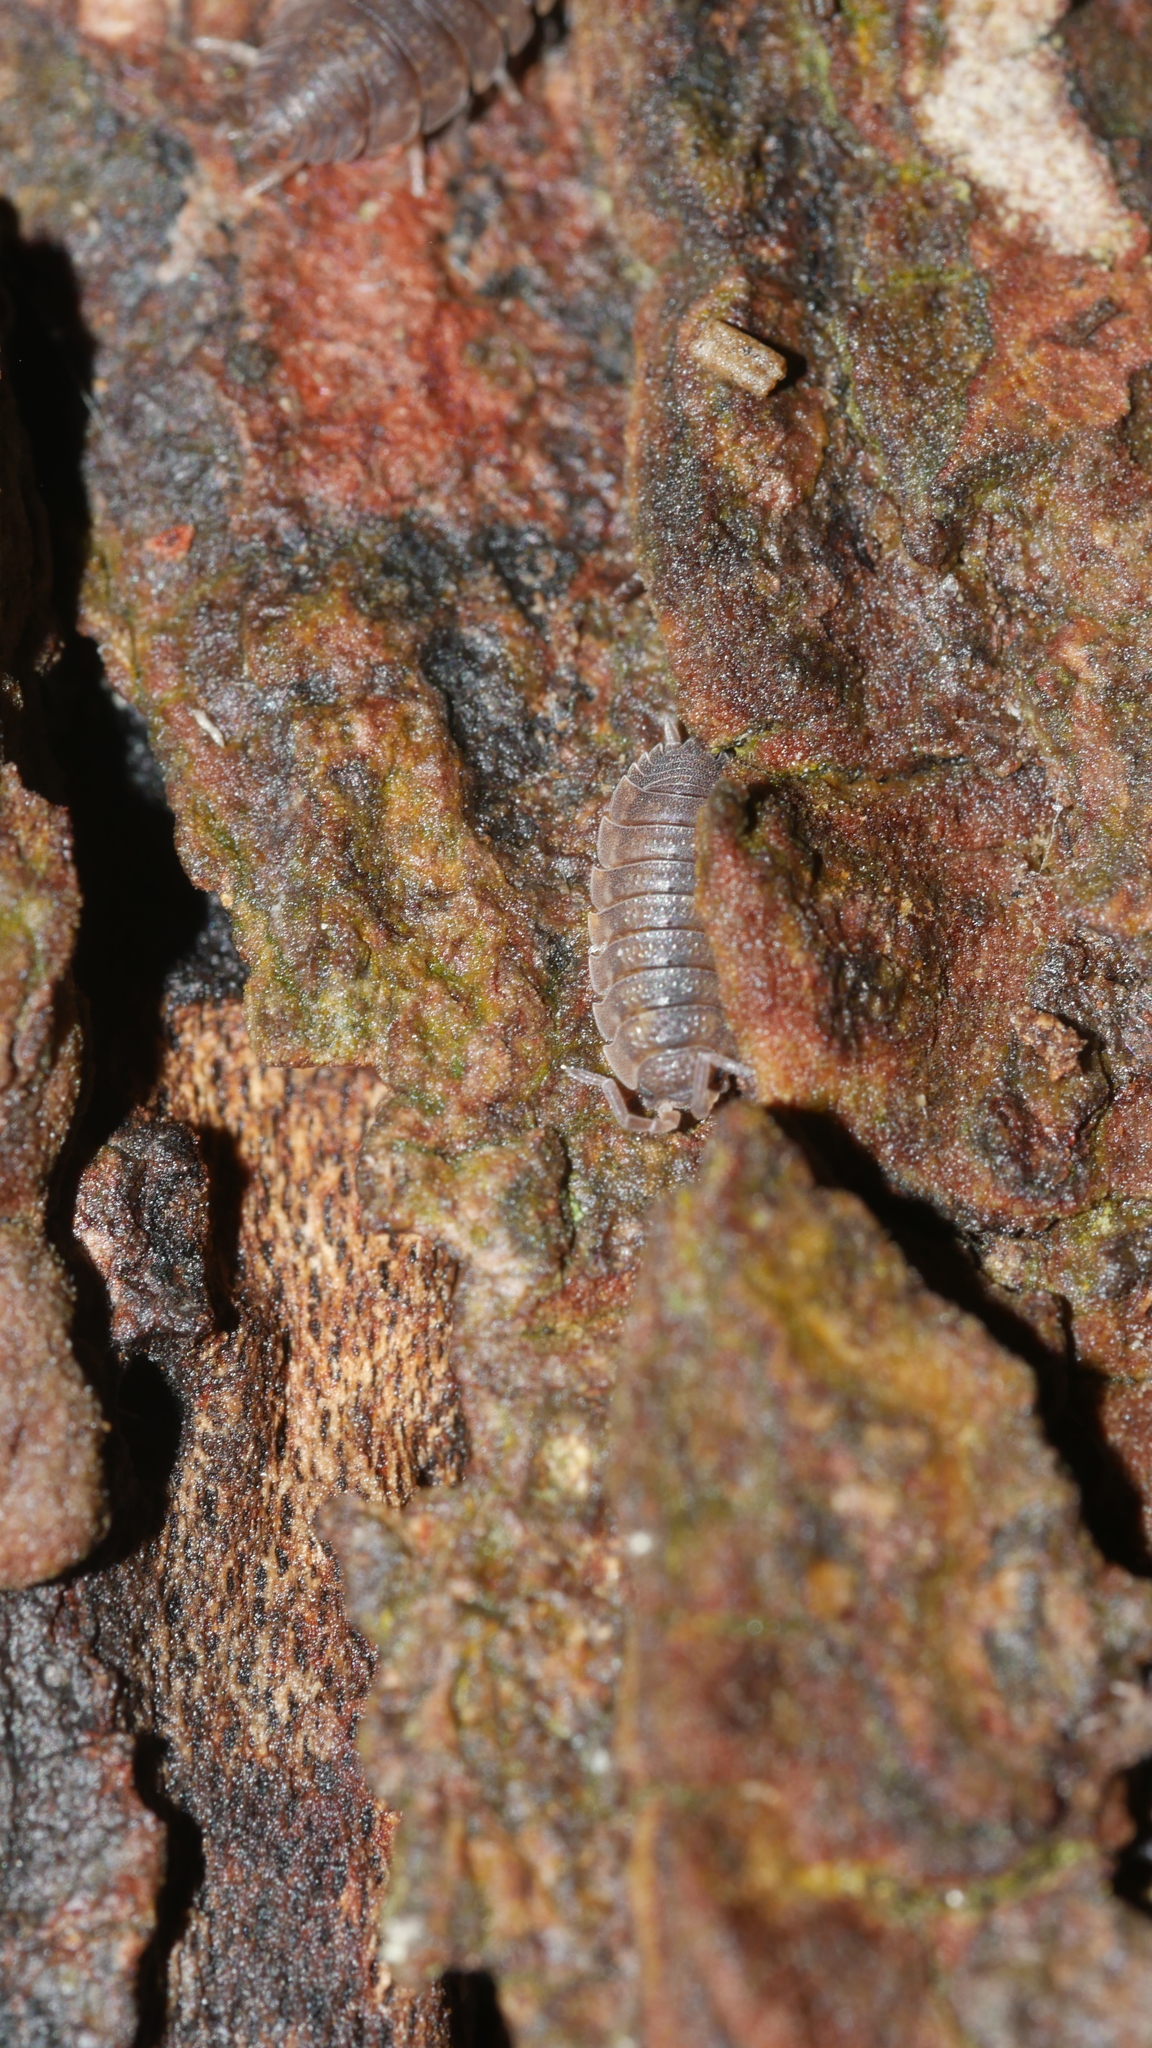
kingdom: Animalia
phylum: Arthropoda
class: Malacostraca
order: Isopoda
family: Porcellionidae
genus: Porcellio
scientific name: Porcellio scaber
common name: Common rough woodlouse
